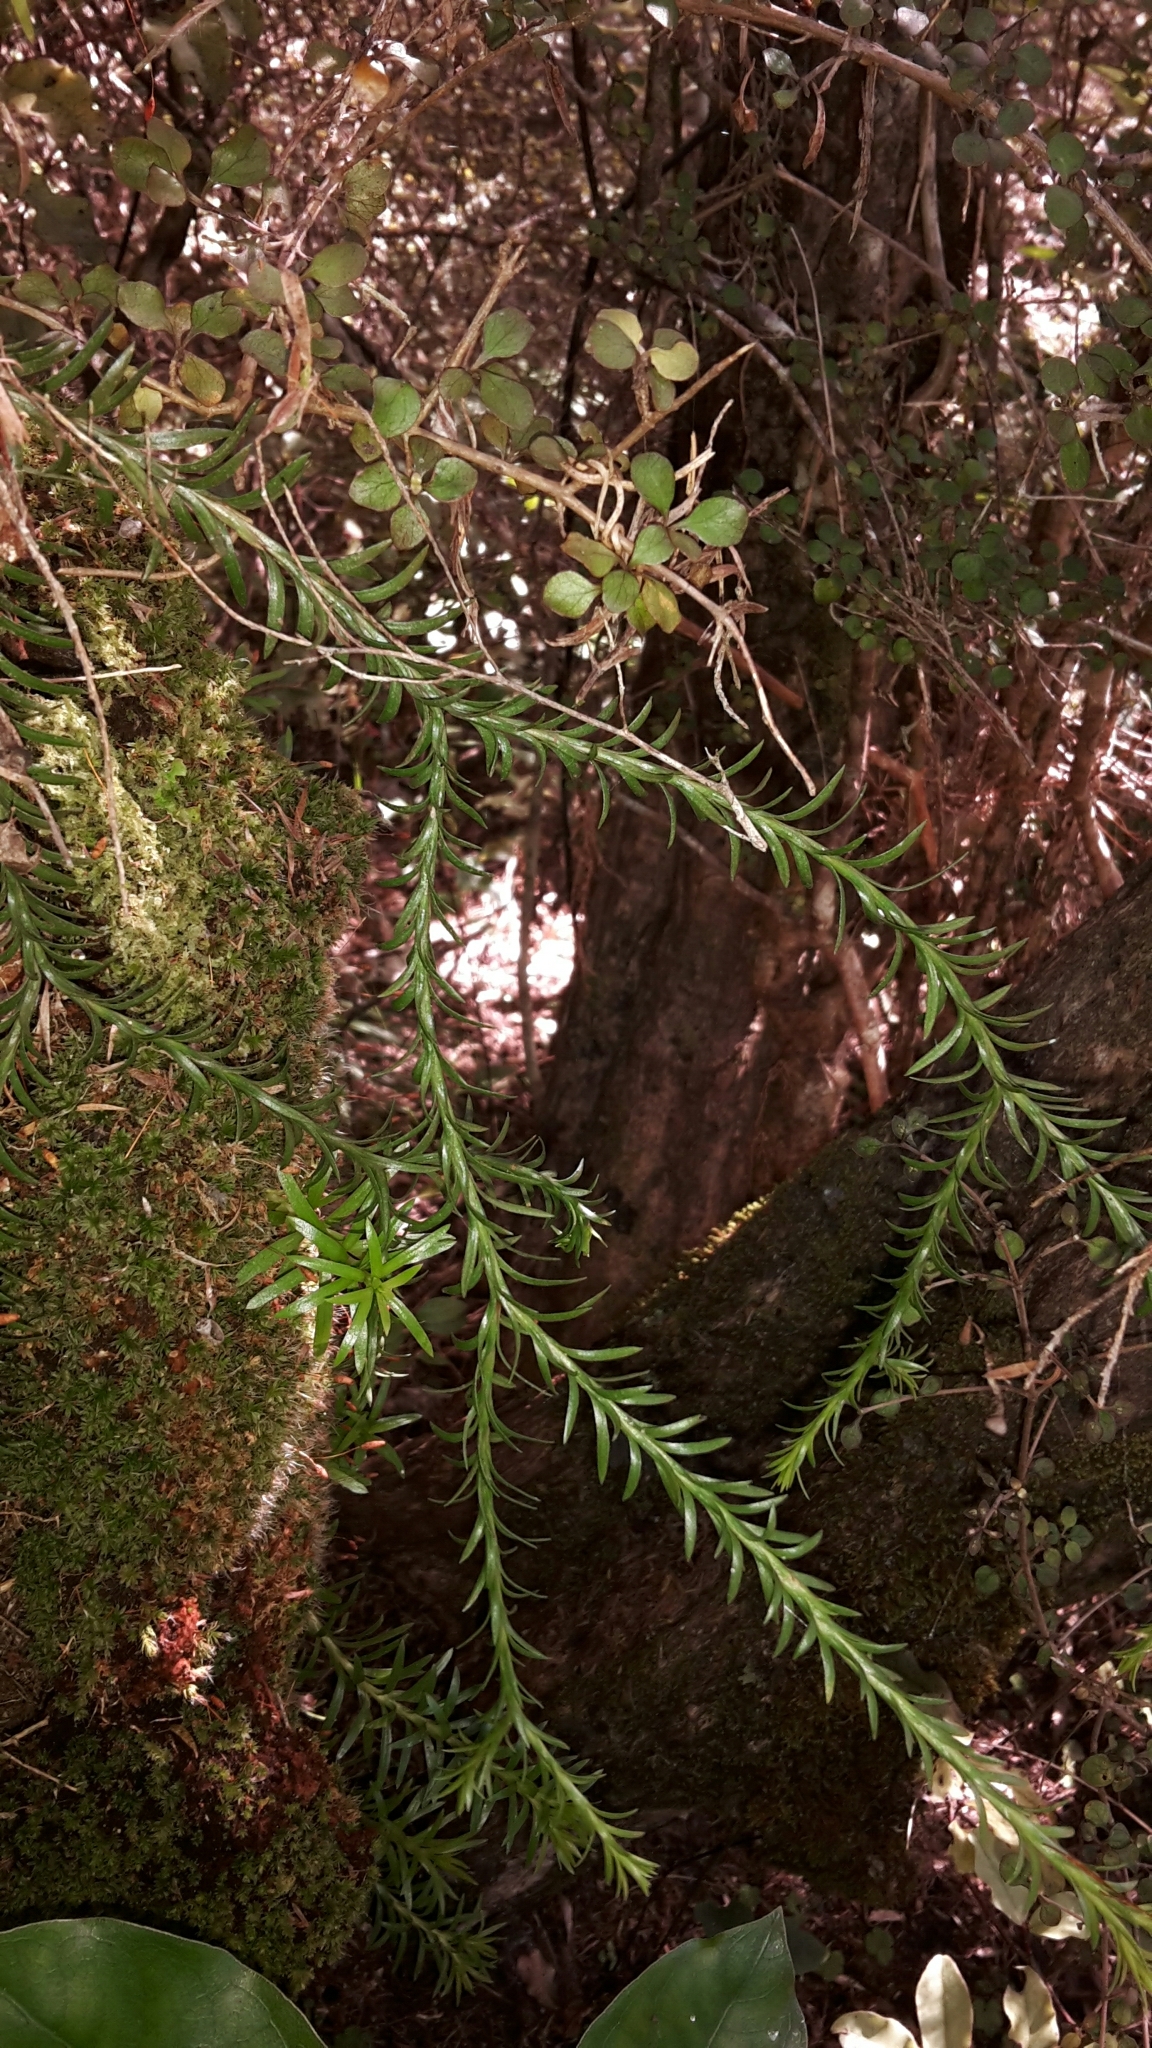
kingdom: Plantae
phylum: Tracheophyta
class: Lycopodiopsida
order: Lycopodiales
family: Lycopodiaceae
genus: Phlegmariurus
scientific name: Phlegmariurus varius
